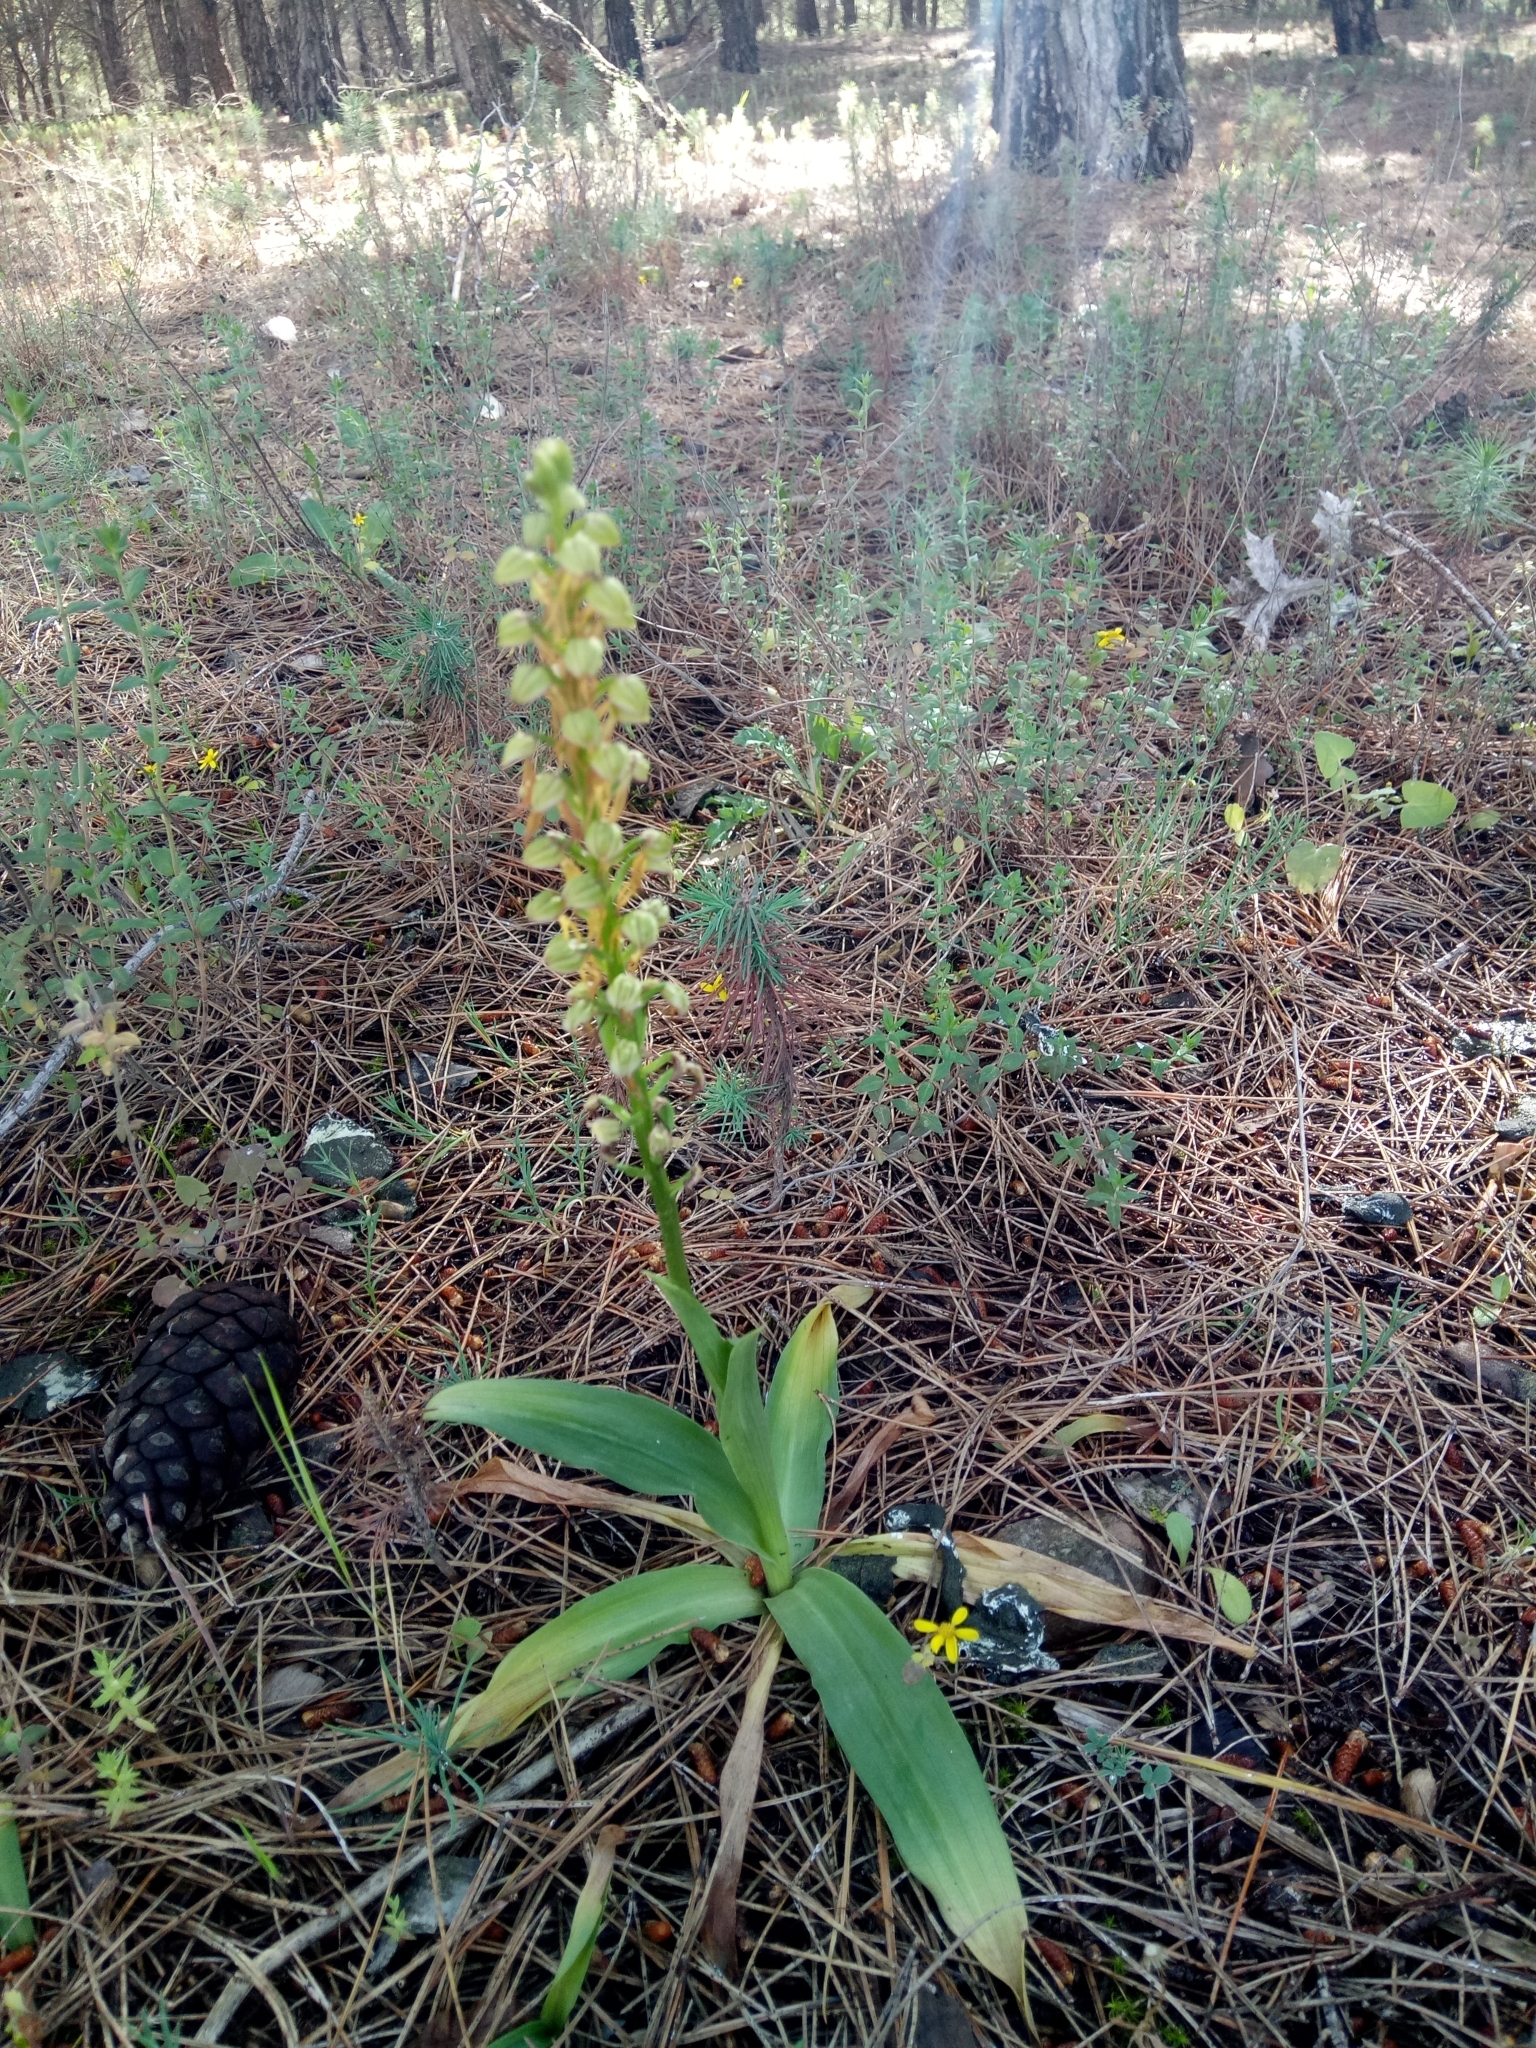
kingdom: Plantae
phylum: Tracheophyta
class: Liliopsida
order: Asparagales
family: Orchidaceae
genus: Orchis
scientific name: Orchis anthropophora
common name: Man orchid
